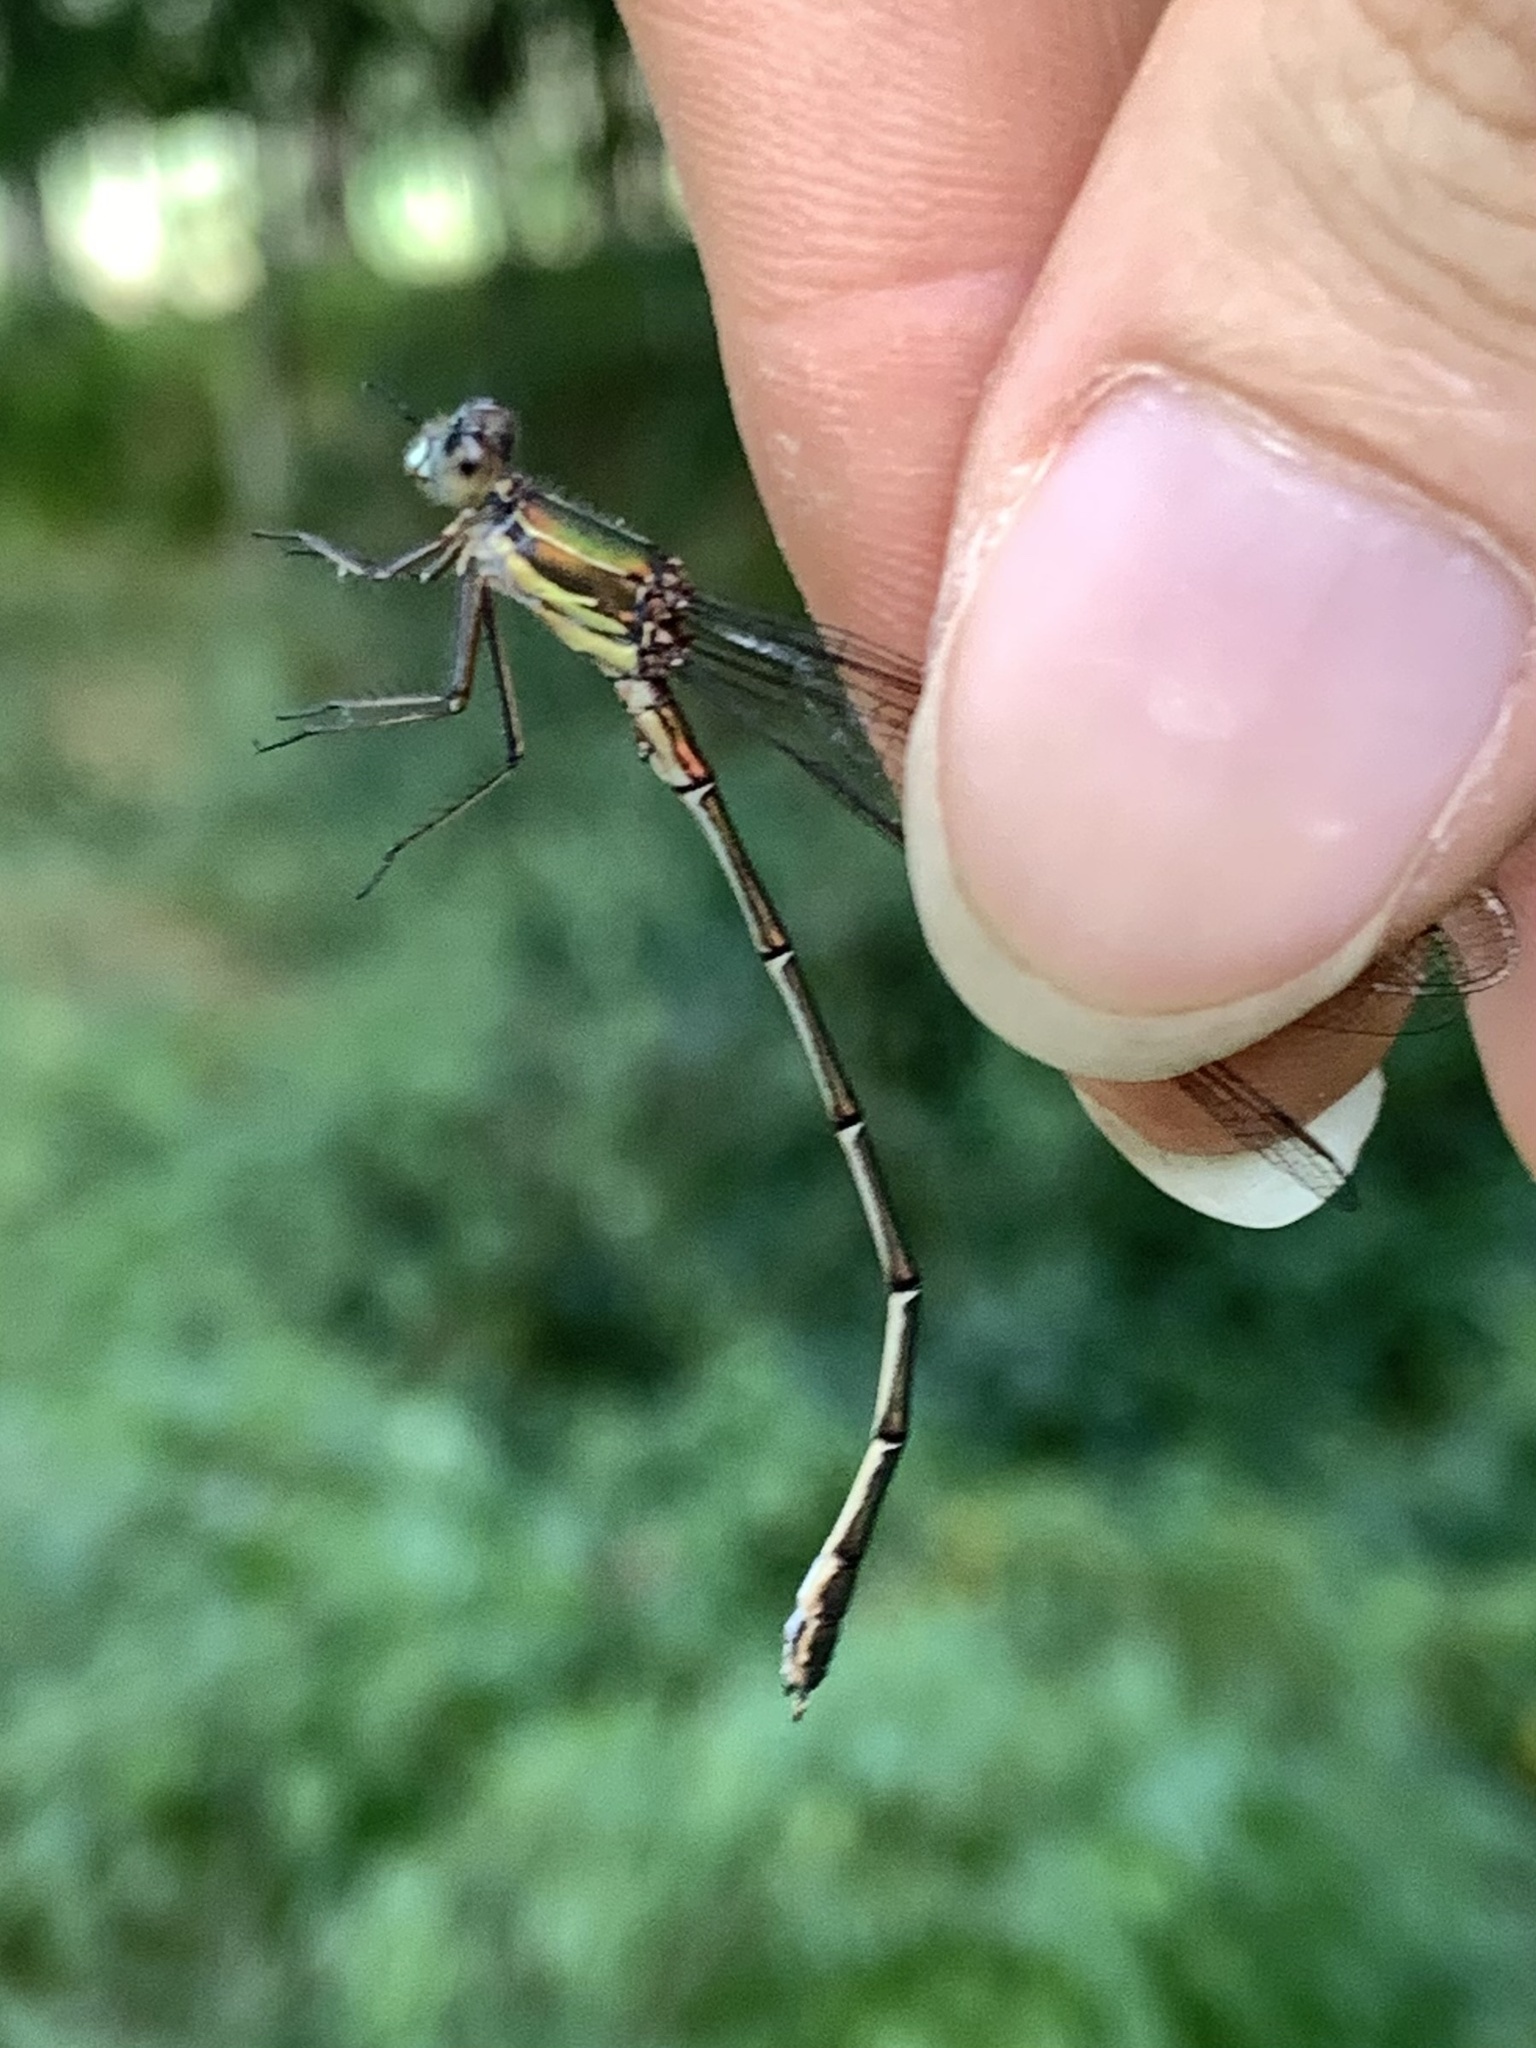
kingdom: Animalia
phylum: Arthropoda
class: Insecta
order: Odonata
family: Lestidae
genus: Chalcolestes
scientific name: Chalcolestes viridis
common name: Green emerald damselfly
